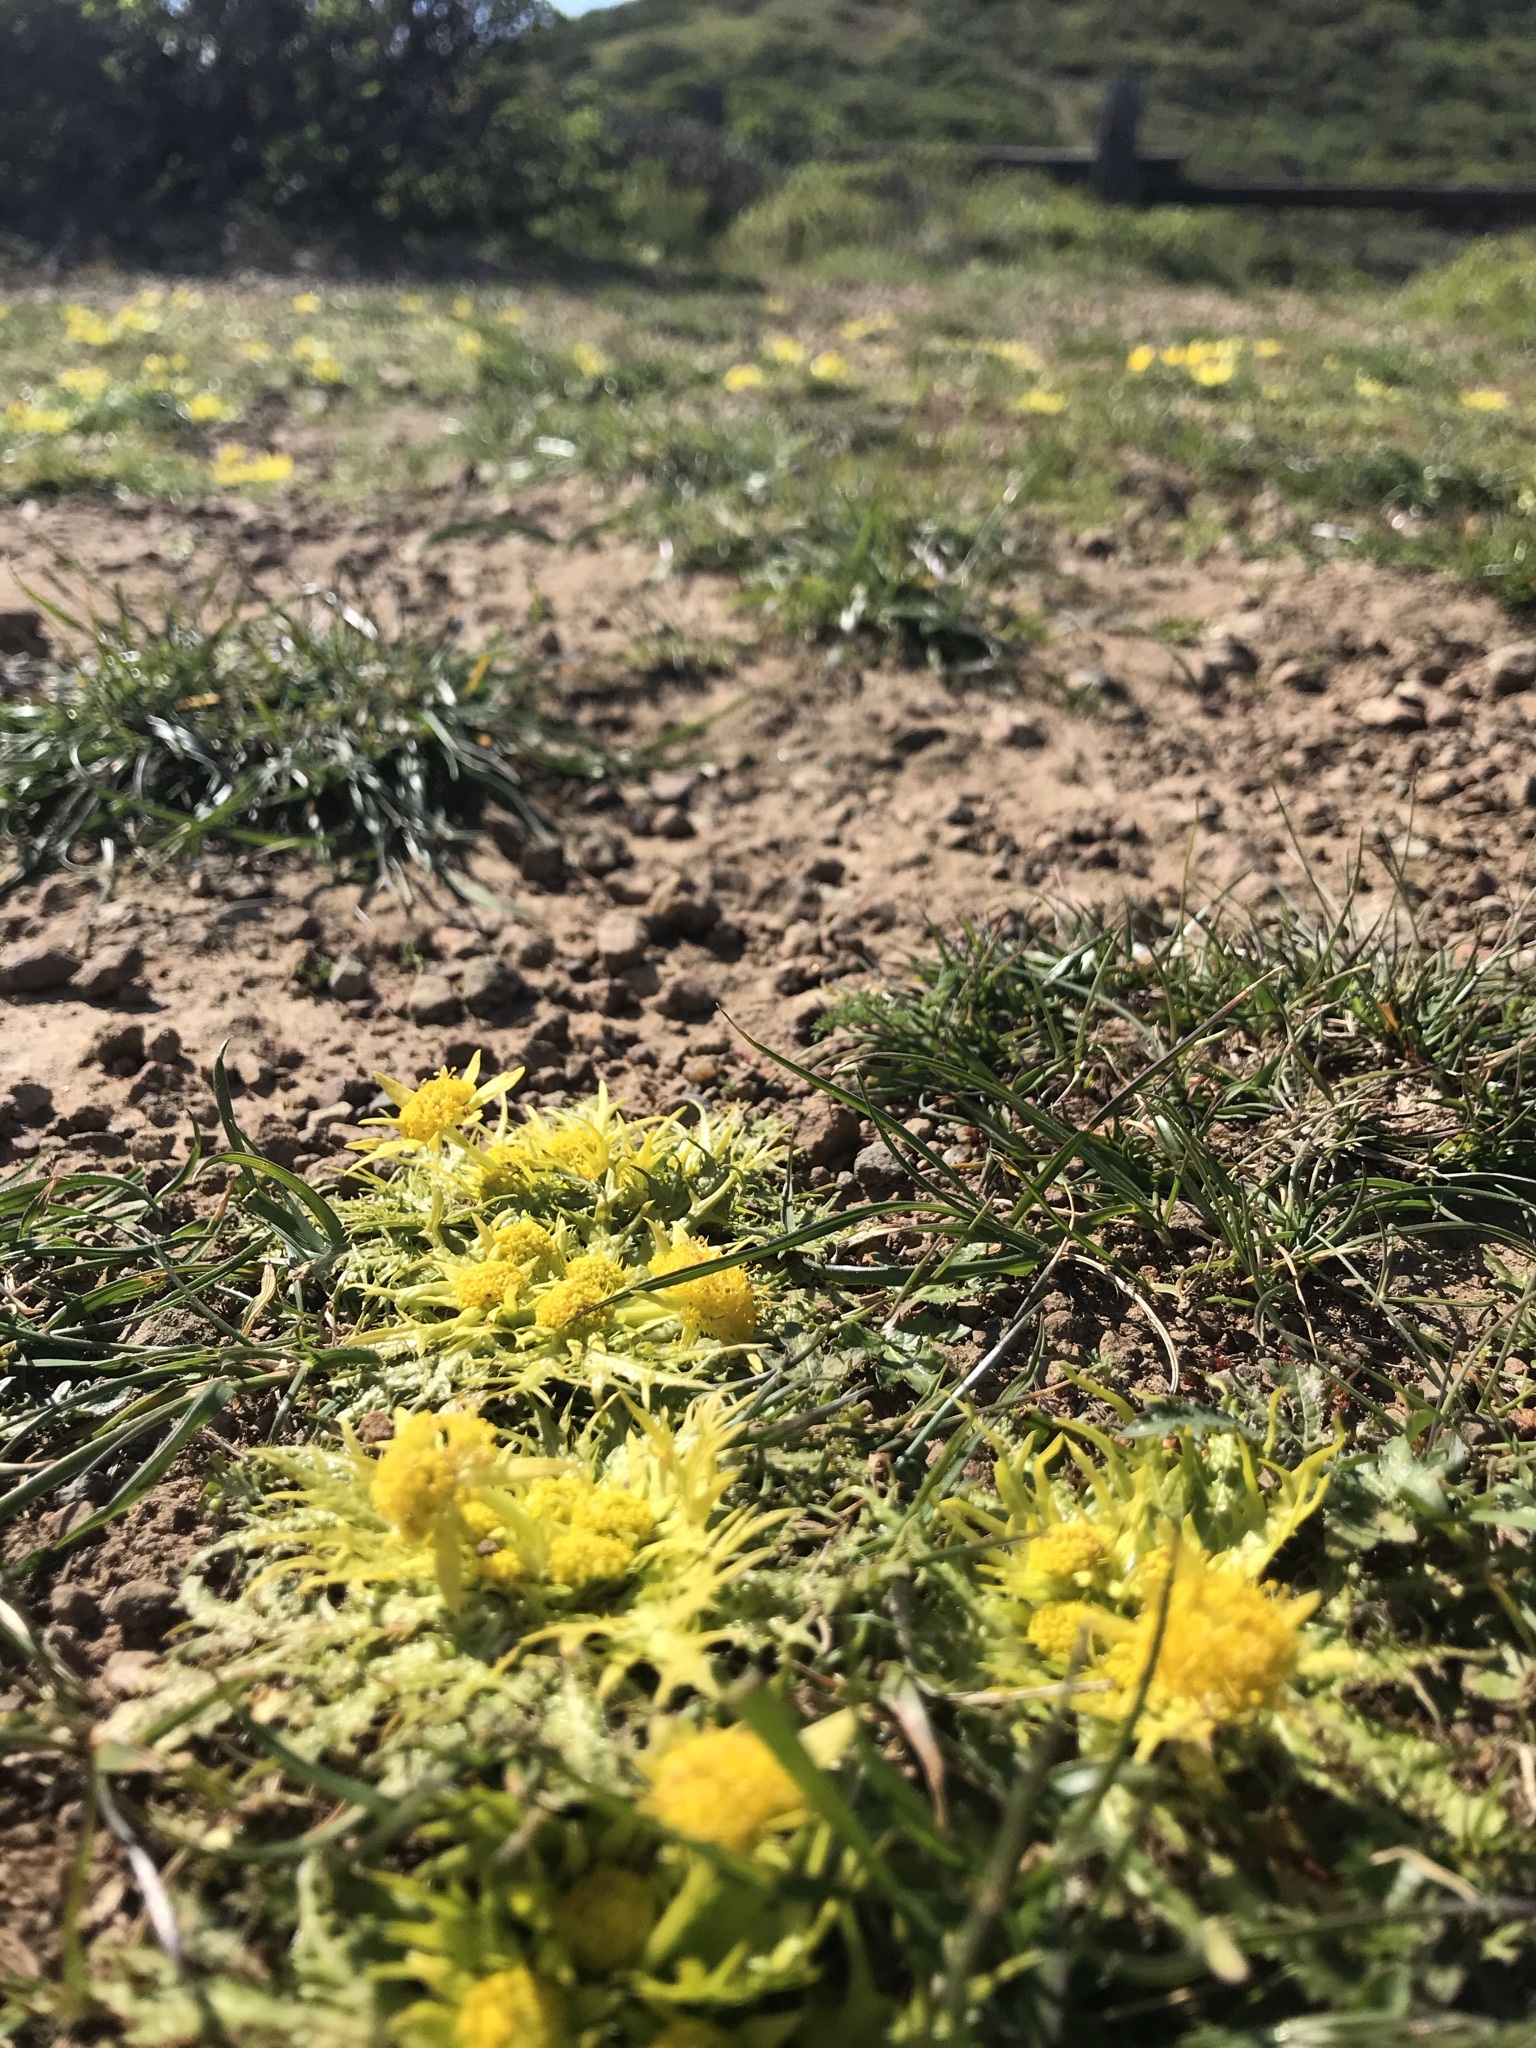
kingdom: Plantae
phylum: Tracheophyta
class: Magnoliopsida
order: Apiales
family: Apiaceae
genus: Sanicula
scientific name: Sanicula arctopoides
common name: Footsteps-of-spring
